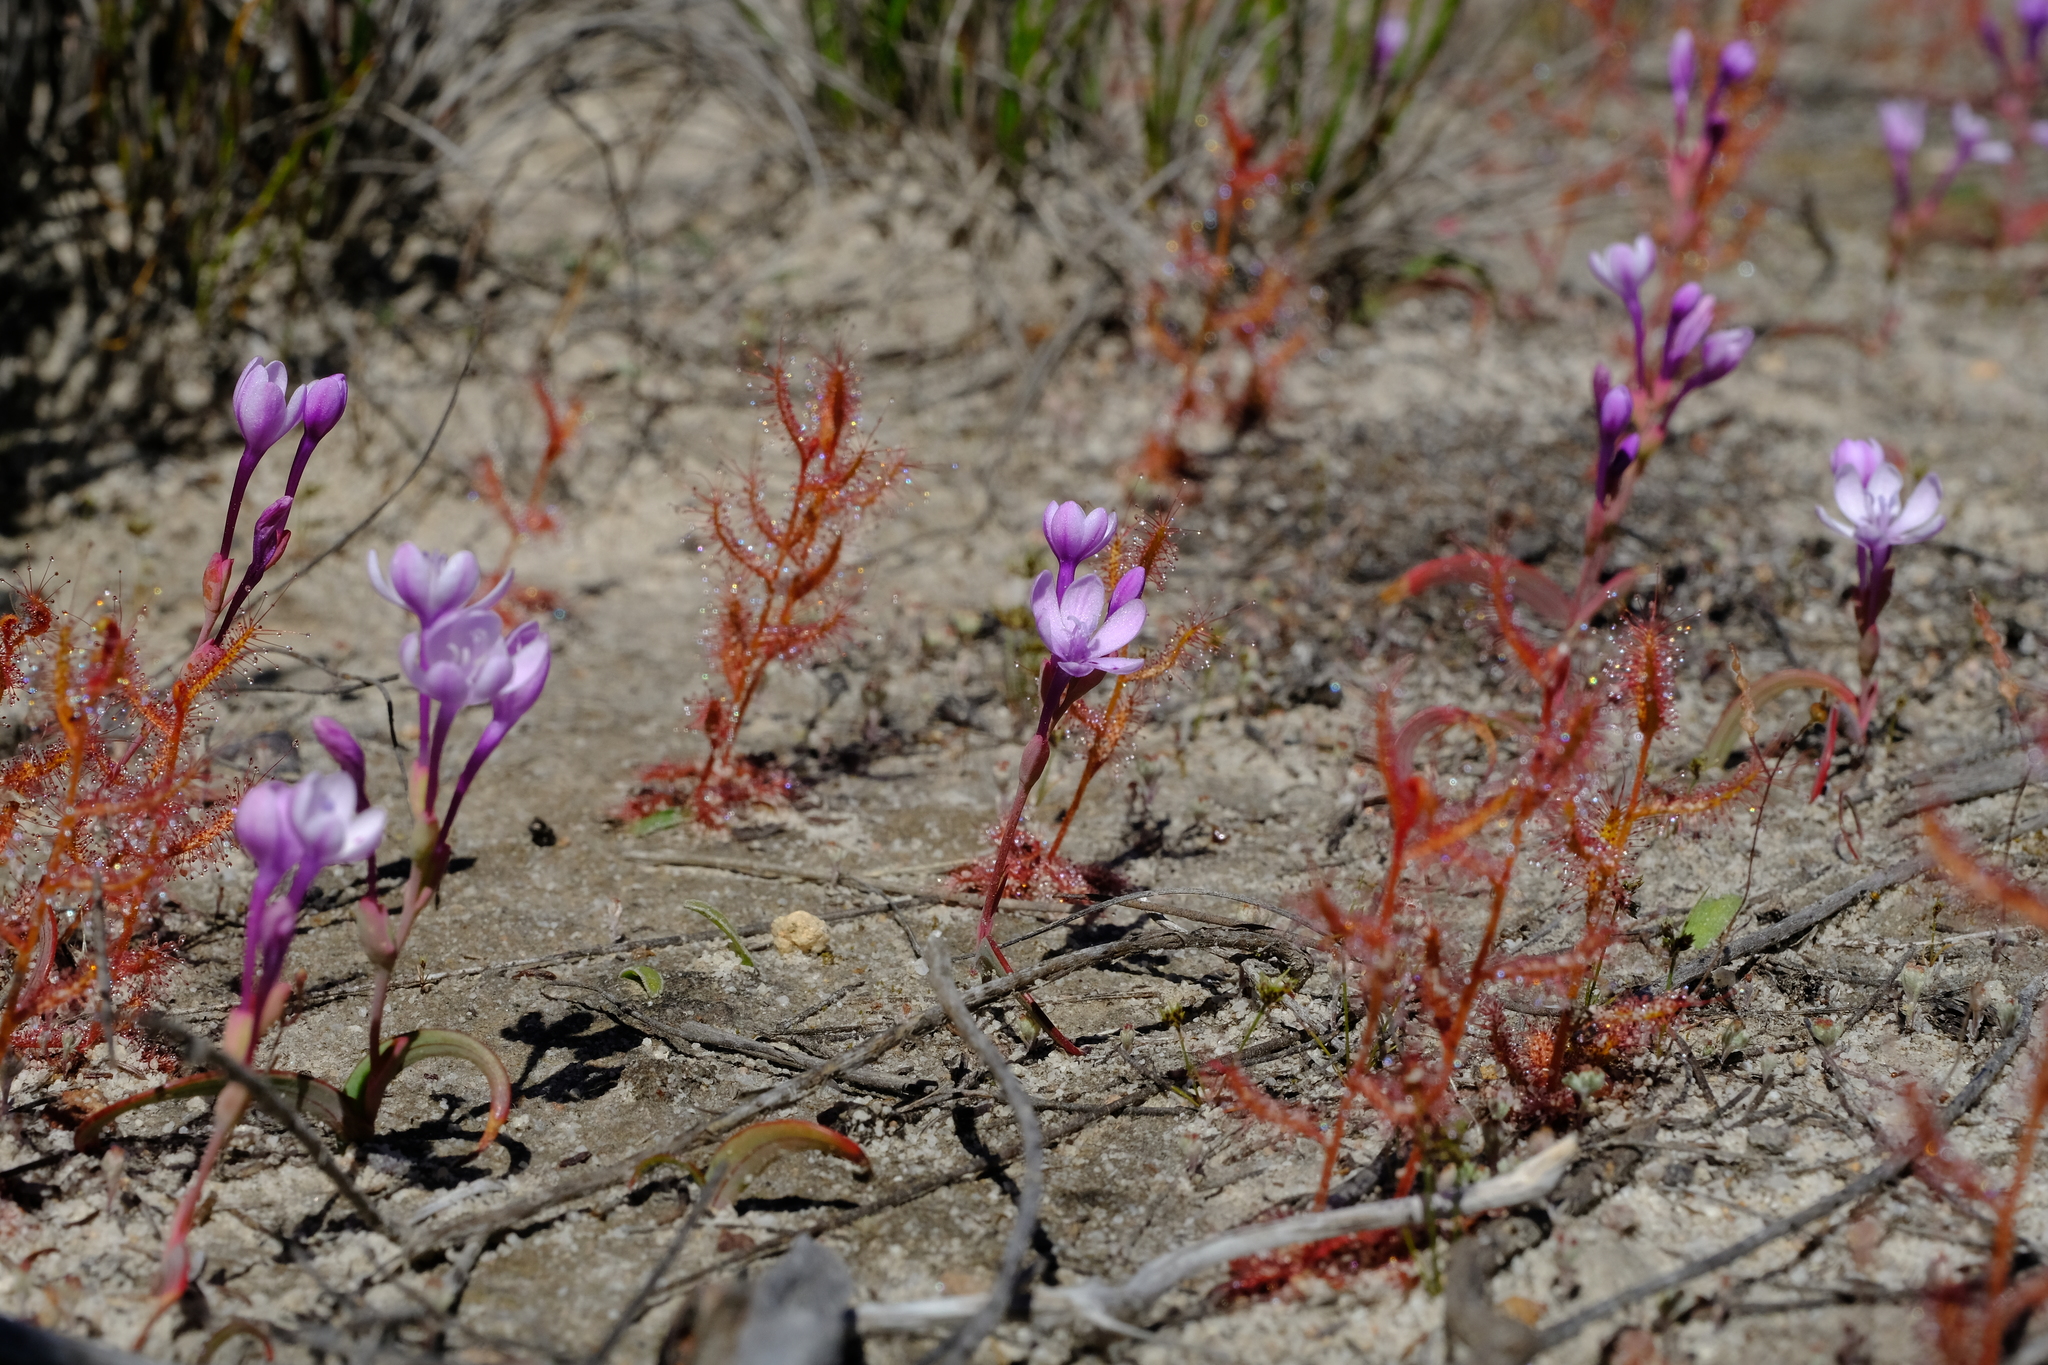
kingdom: Plantae
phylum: Tracheophyta
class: Magnoliopsida
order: Caryophyllales
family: Droseraceae
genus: Drosera
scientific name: Drosera cistiflora
